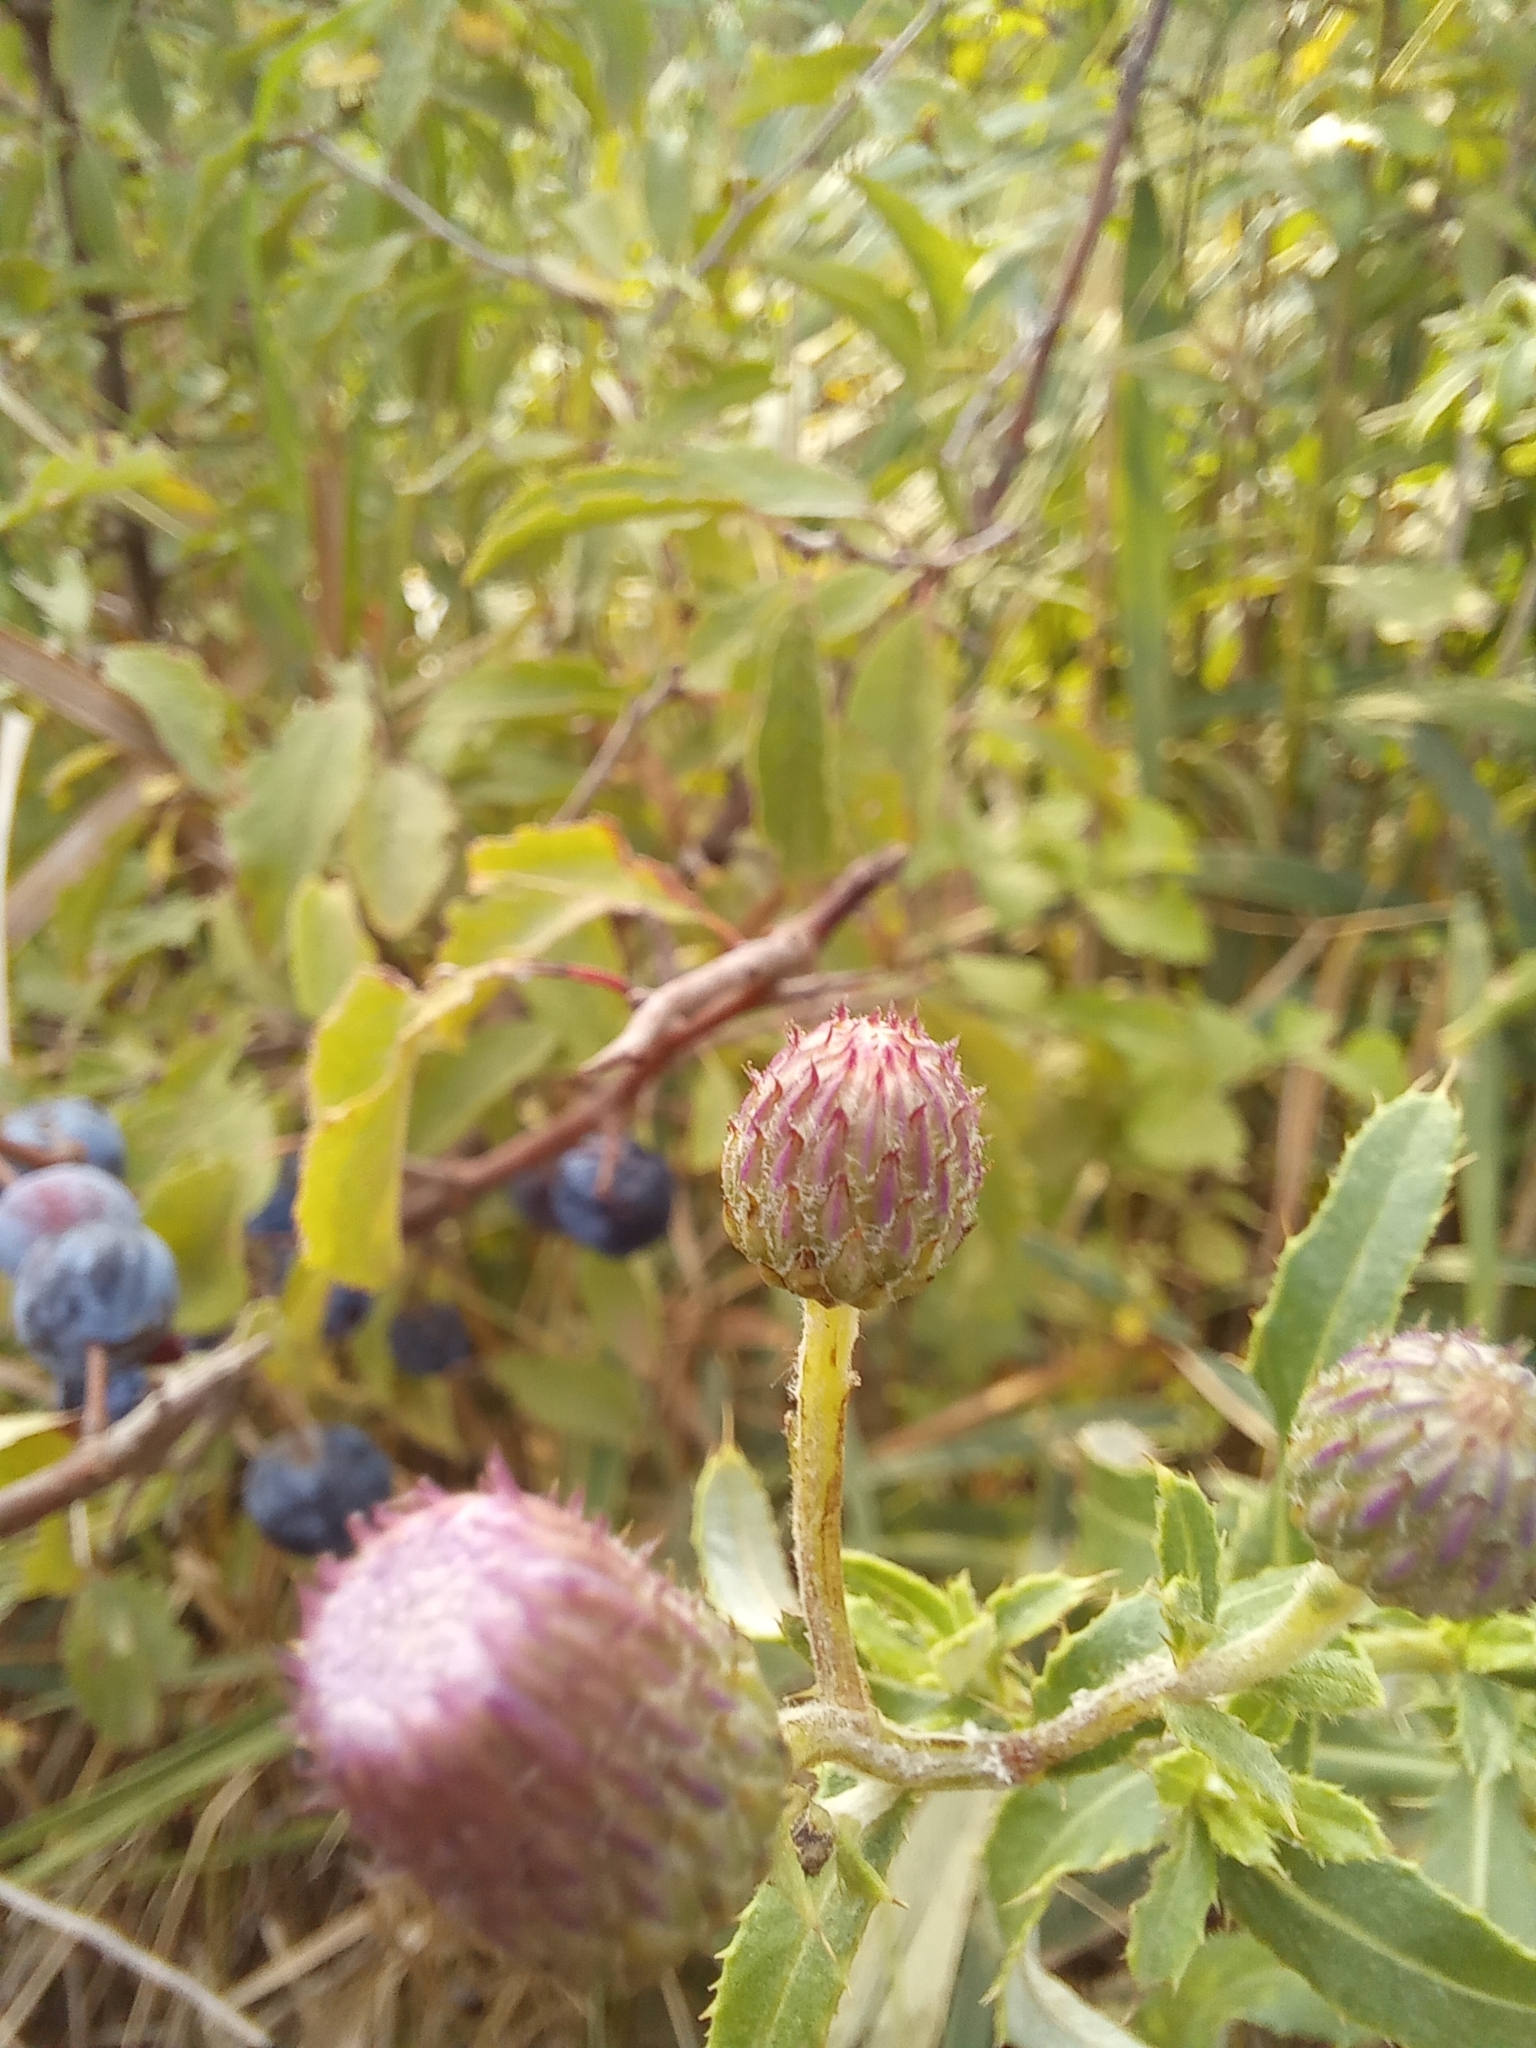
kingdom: Plantae
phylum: Tracheophyta
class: Magnoliopsida
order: Asterales
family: Asteraceae
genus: Cirsium
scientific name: Cirsium arvense
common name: Creeping thistle
